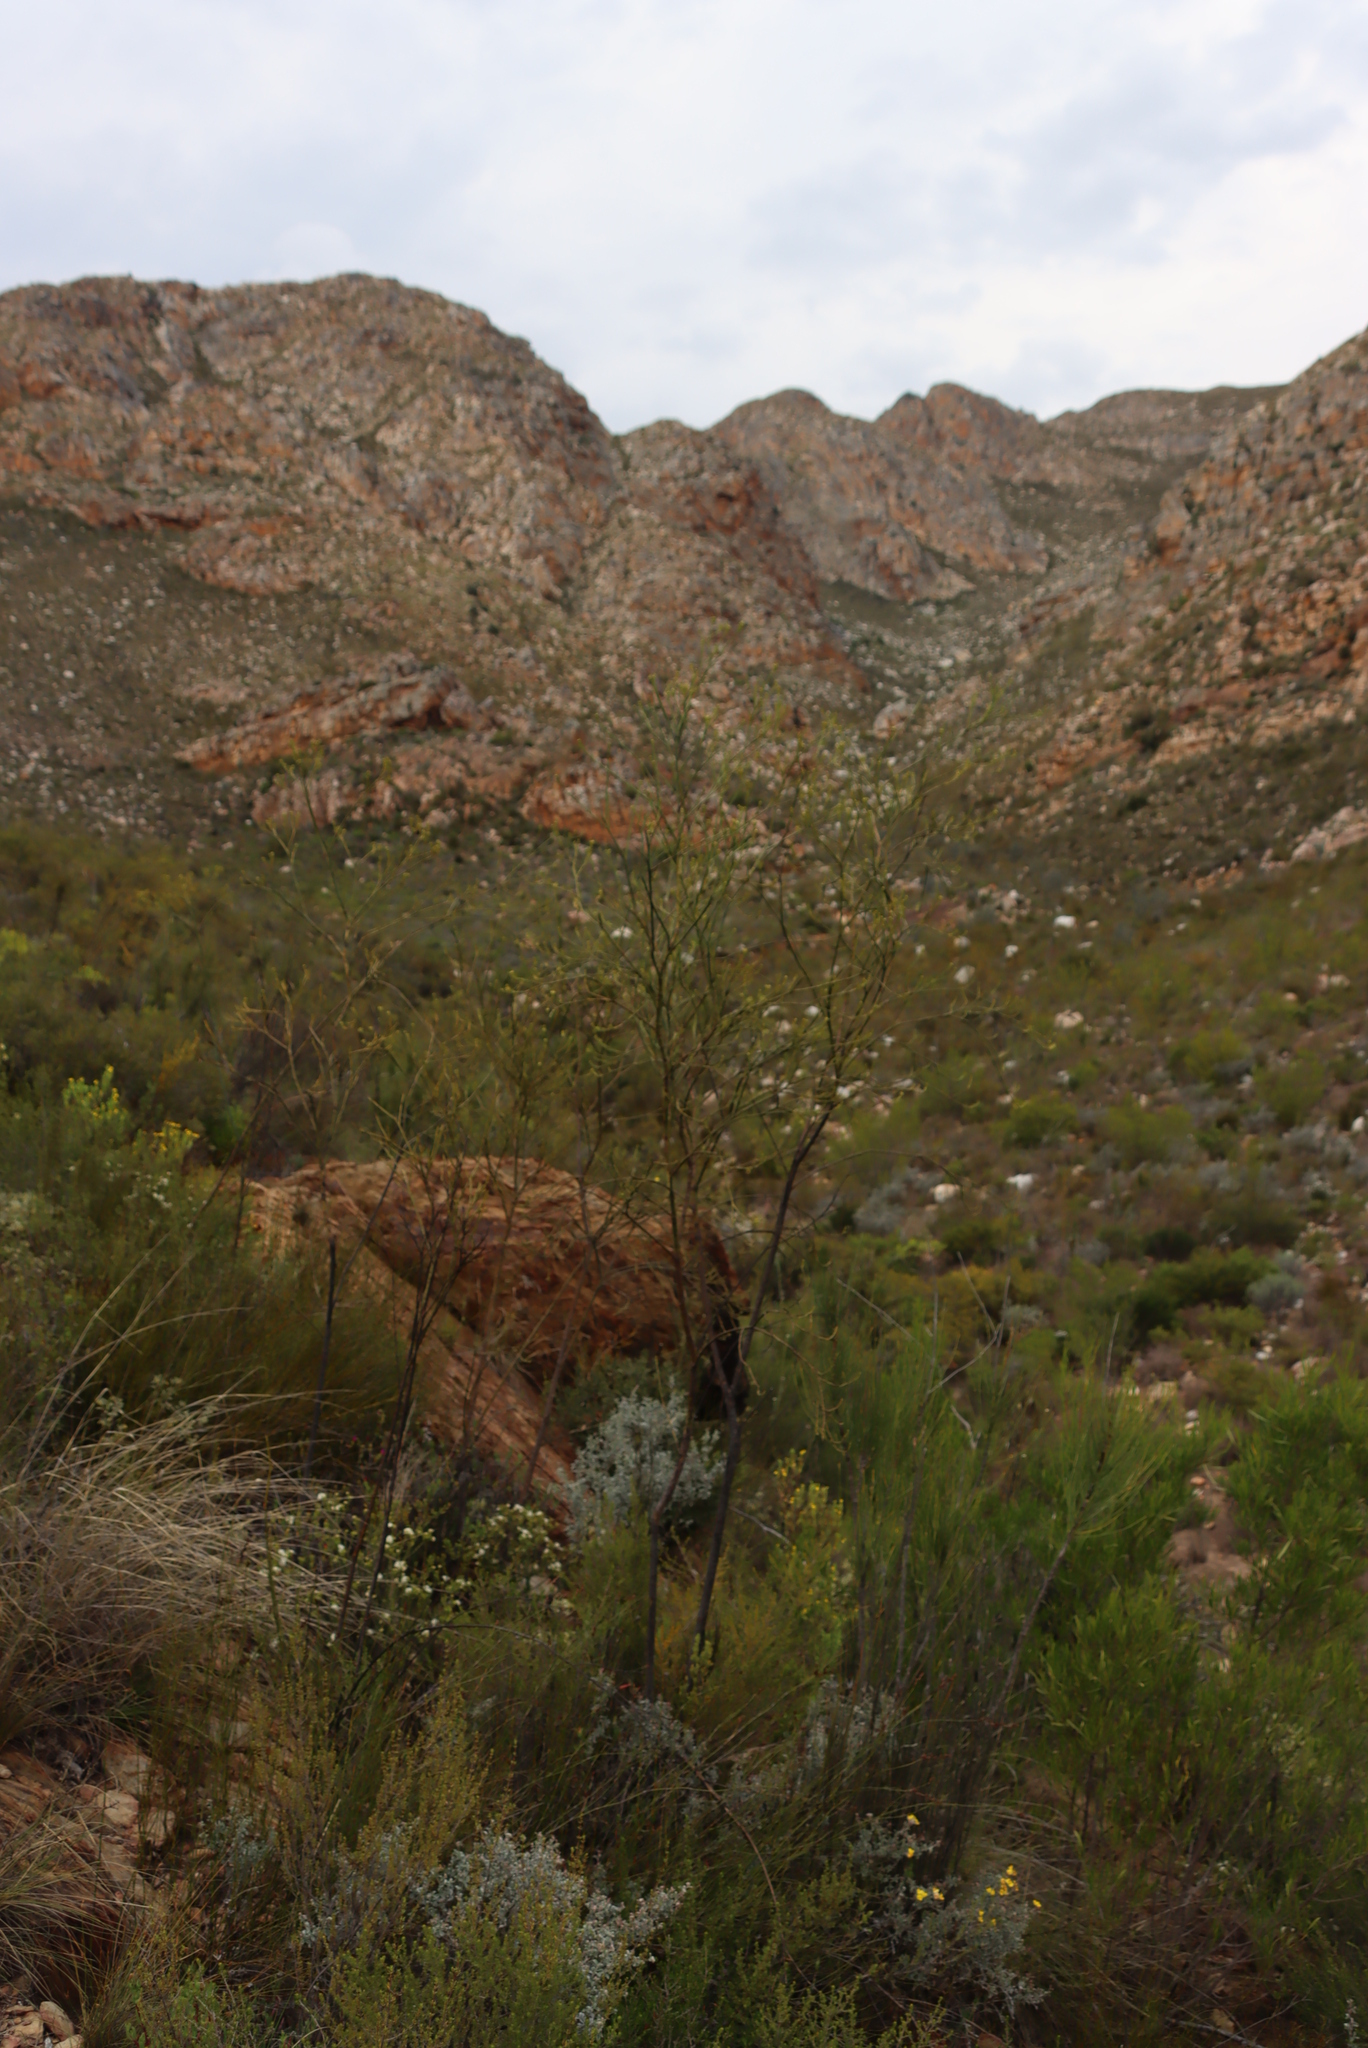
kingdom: Plantae
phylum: Tracheophyta
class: Magnoliopsida
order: Santalales
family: Thesiaceae
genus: Thesium
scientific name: Thesium strictum
